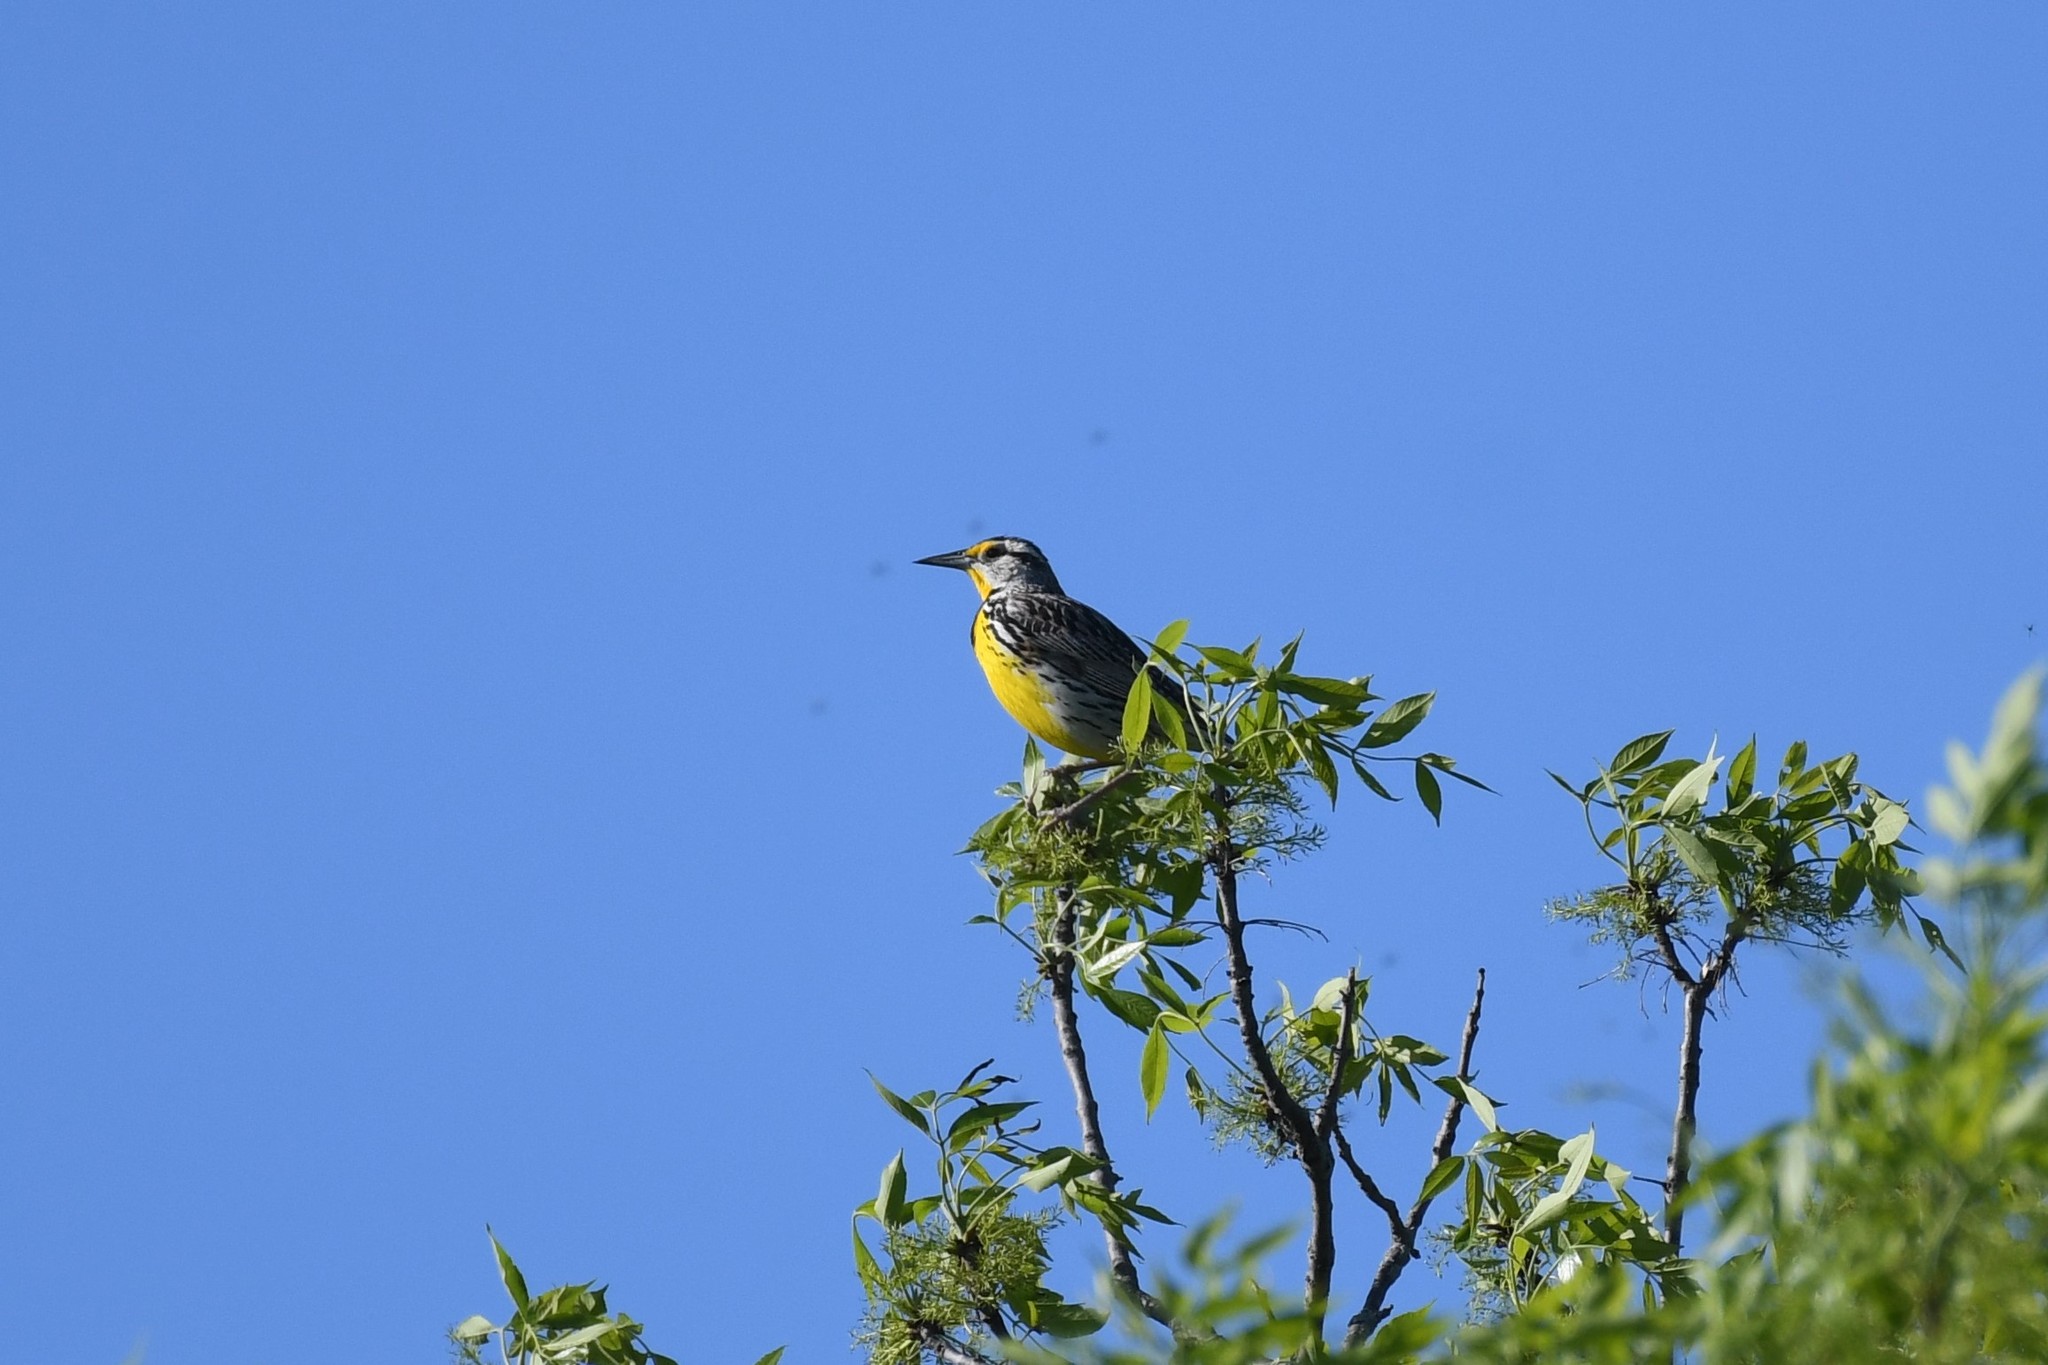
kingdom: Animalia
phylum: Chordata
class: Aves
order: Passeriformes
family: Icteridae
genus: Sturnella
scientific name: Sturnella magna
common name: Eastern meadowlark
